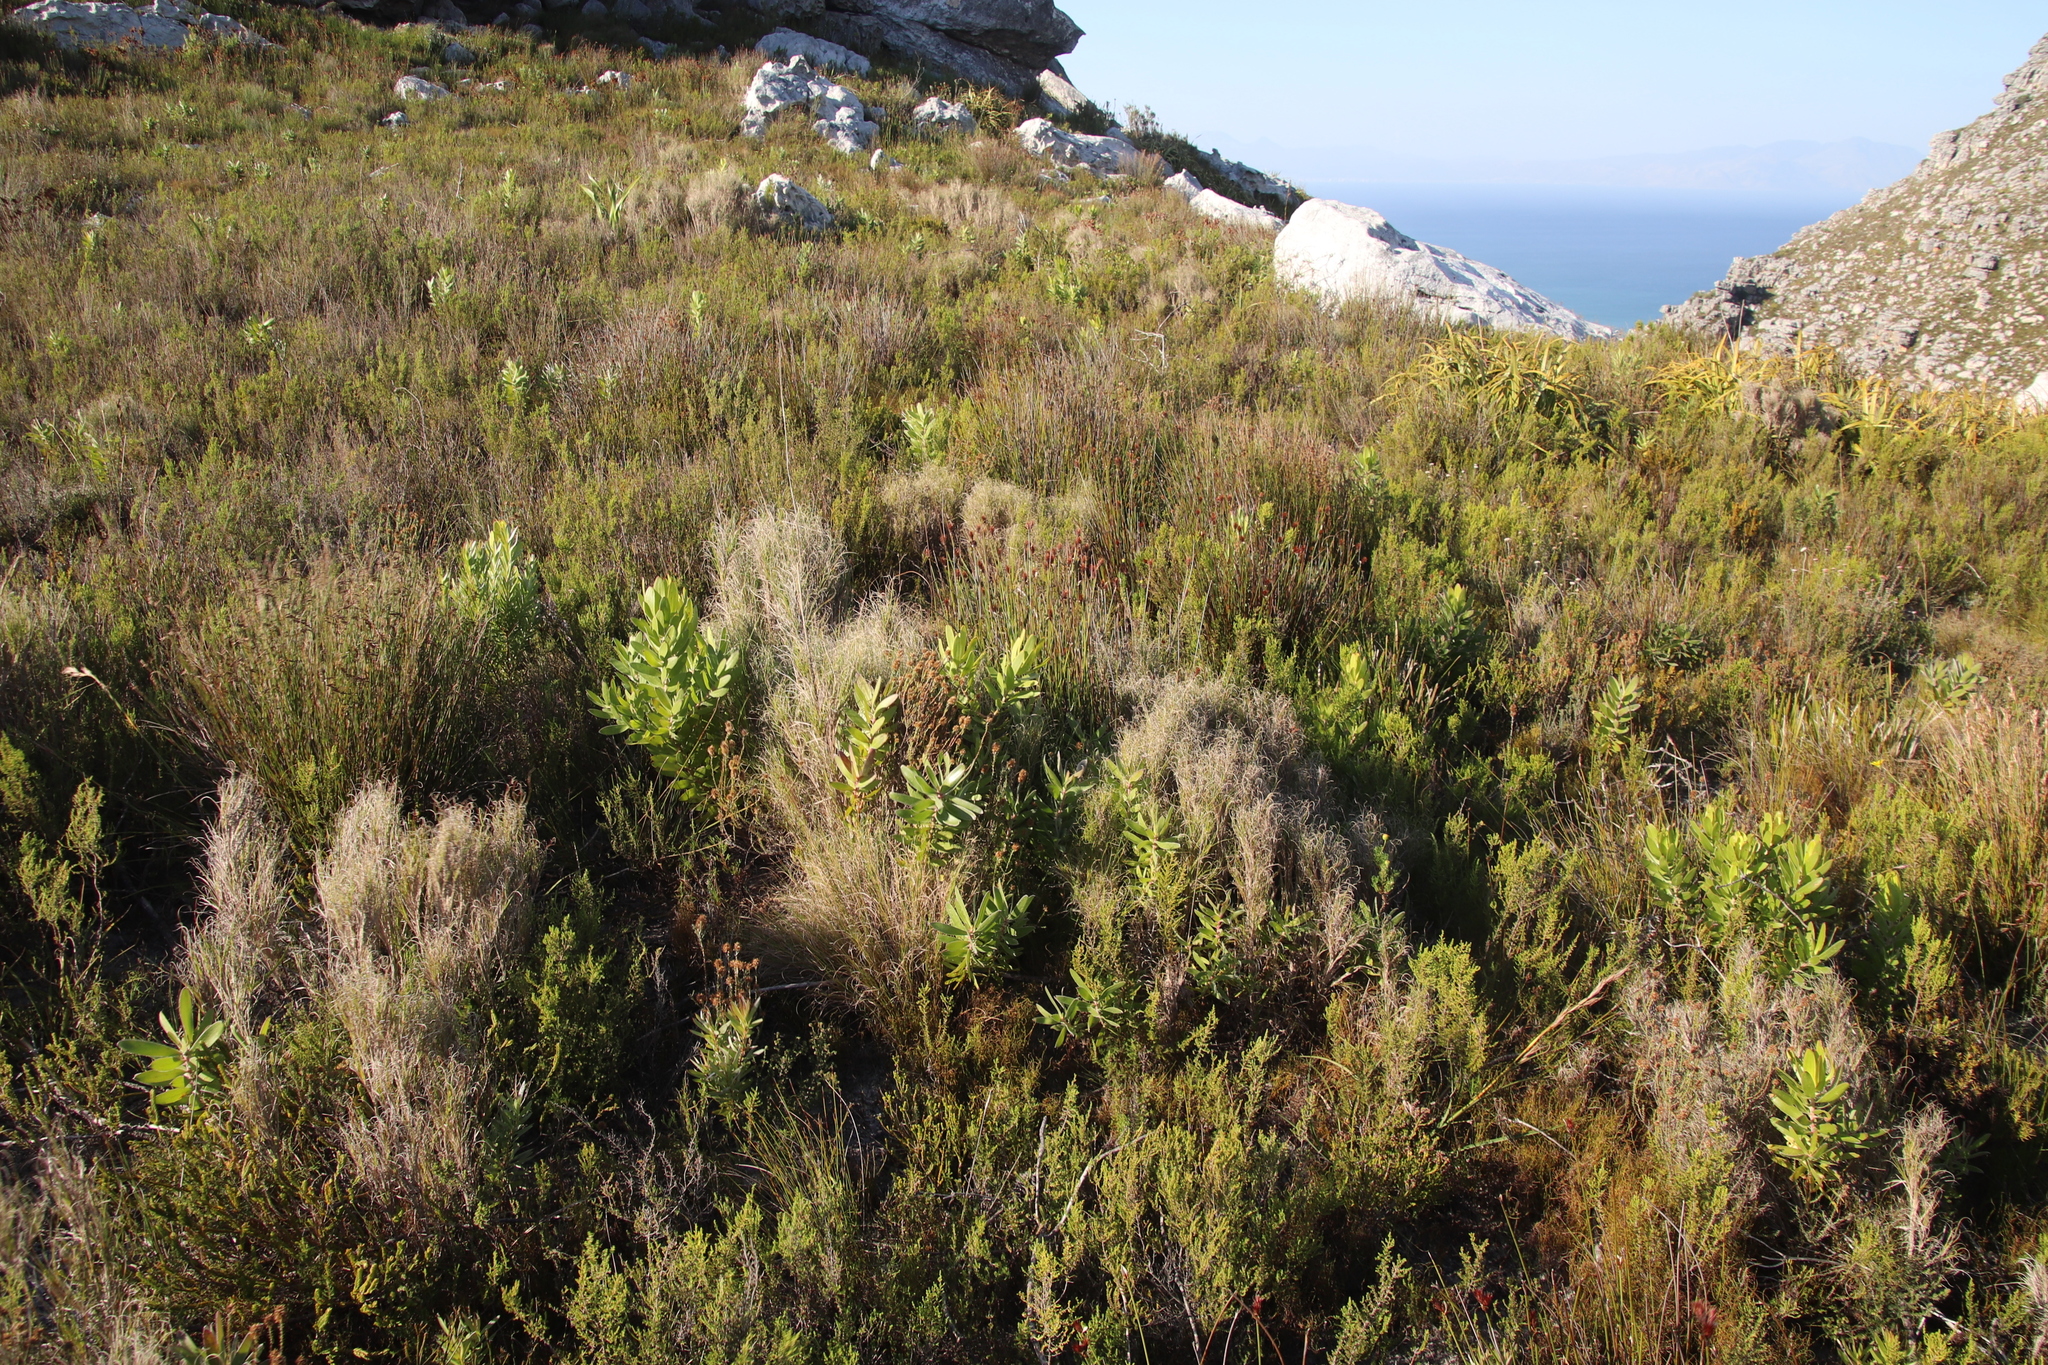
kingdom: Plantae
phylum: Tracheophyta
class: Liliopsida
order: Poales
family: Poaceae
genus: Pseudopentameris
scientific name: Pseudopentameris macrantha
